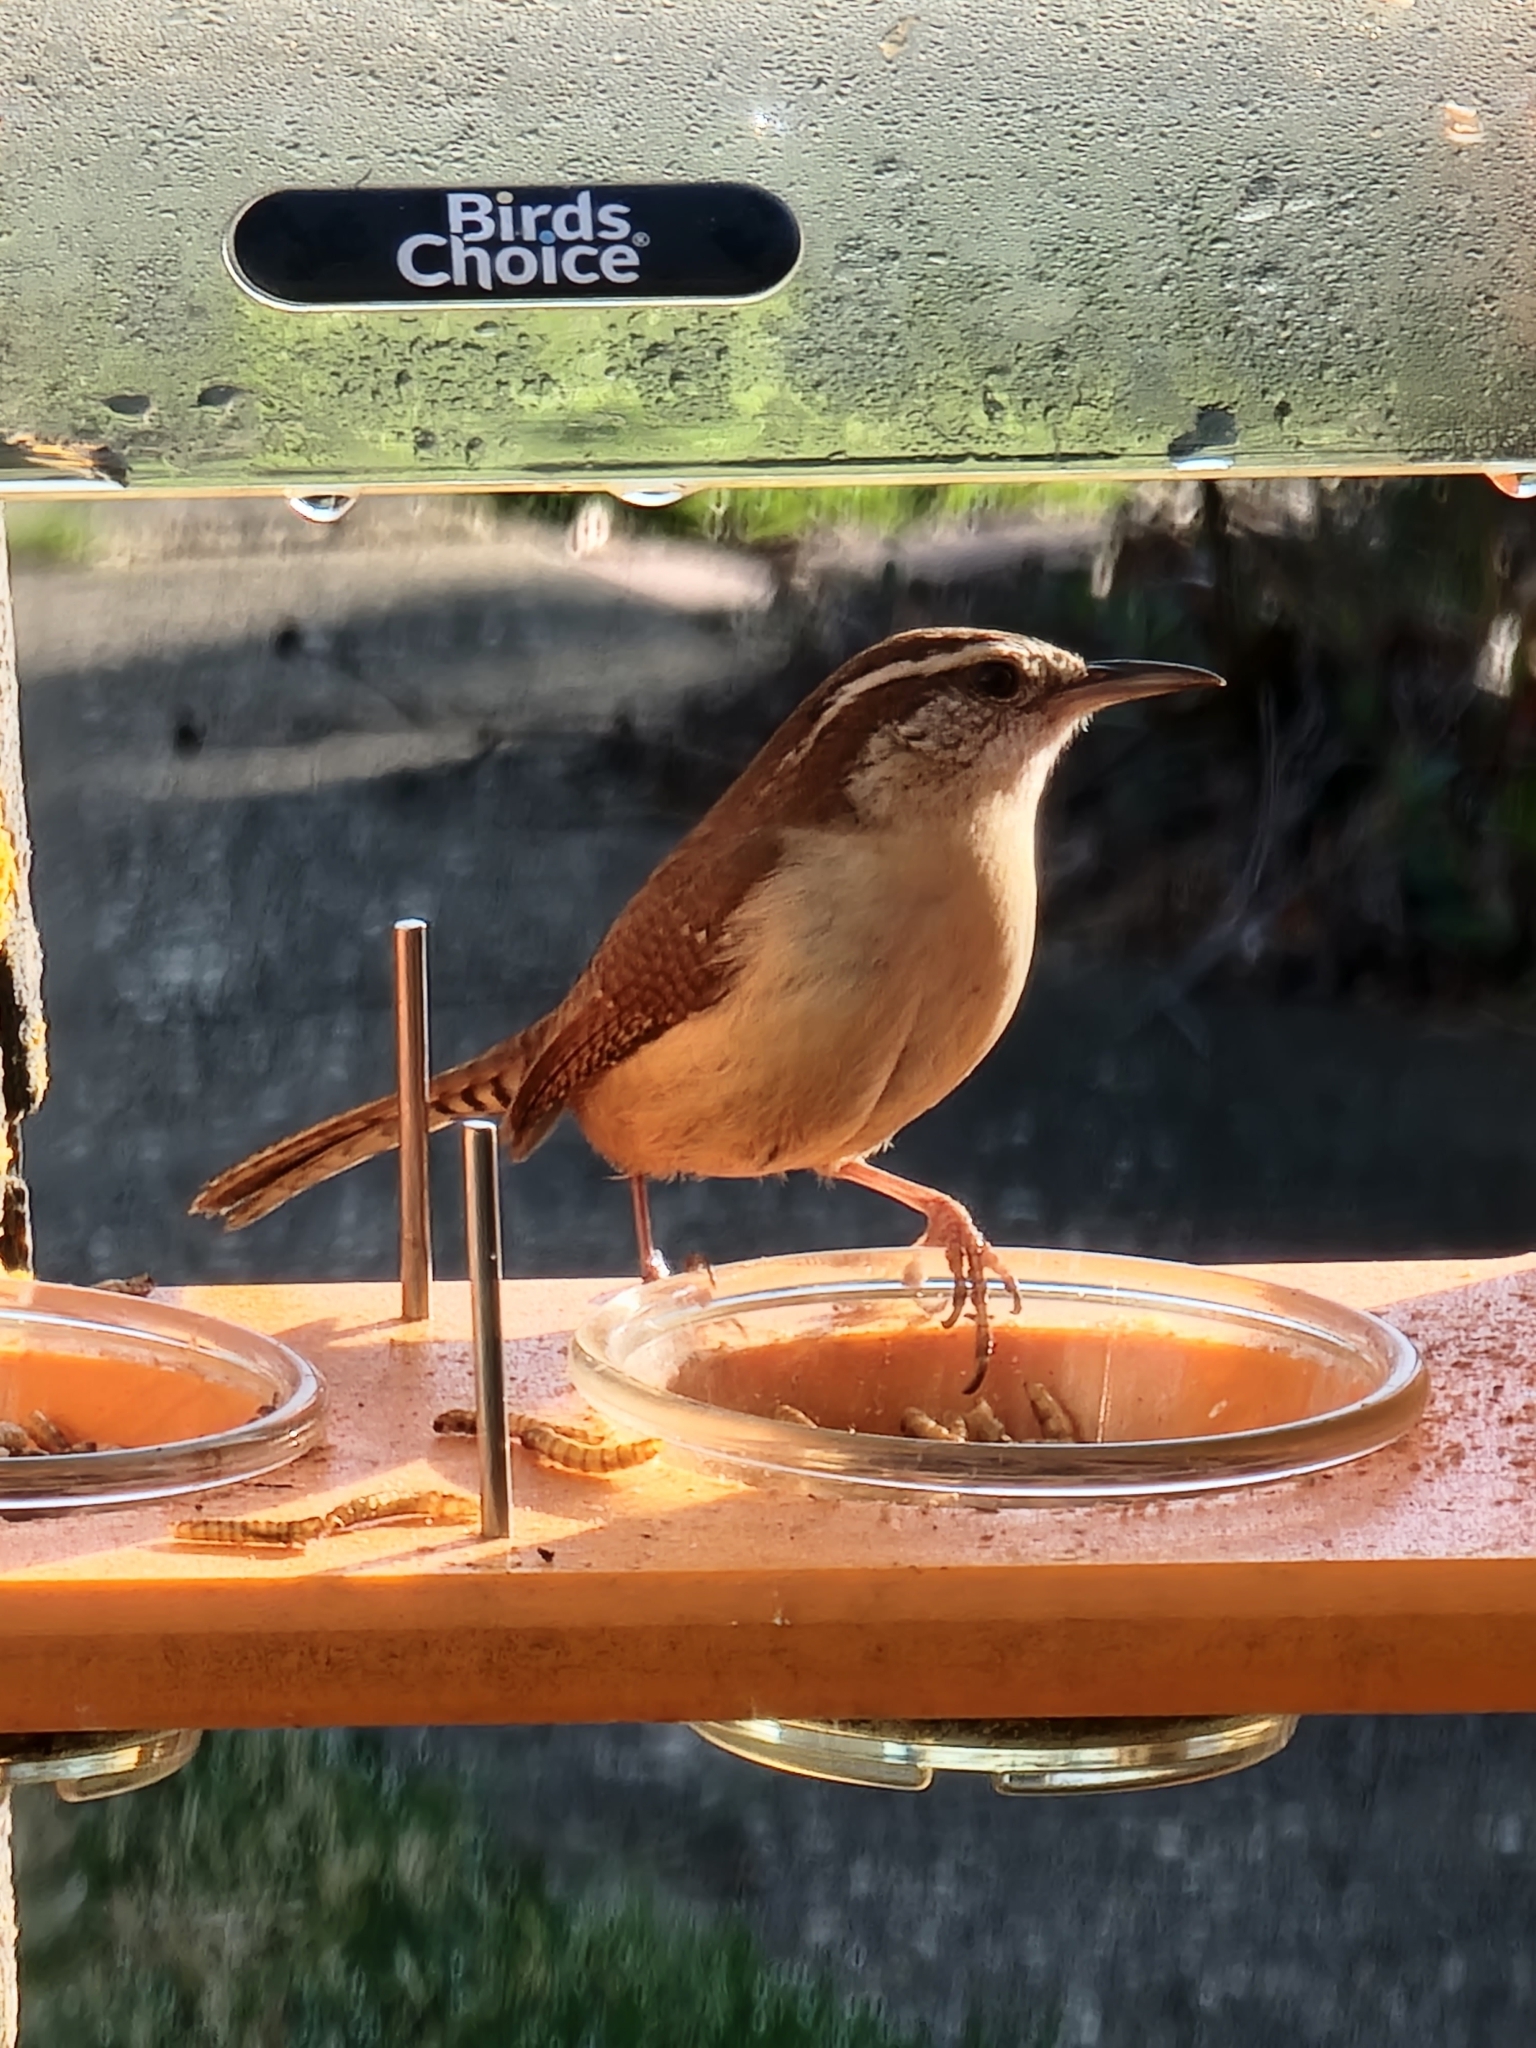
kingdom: Animalia
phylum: Chordata
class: Aves
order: Passeriformes
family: Troglodytidae
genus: Thryothorus
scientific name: Thryothorus ludovicianus
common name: Carolina wren
